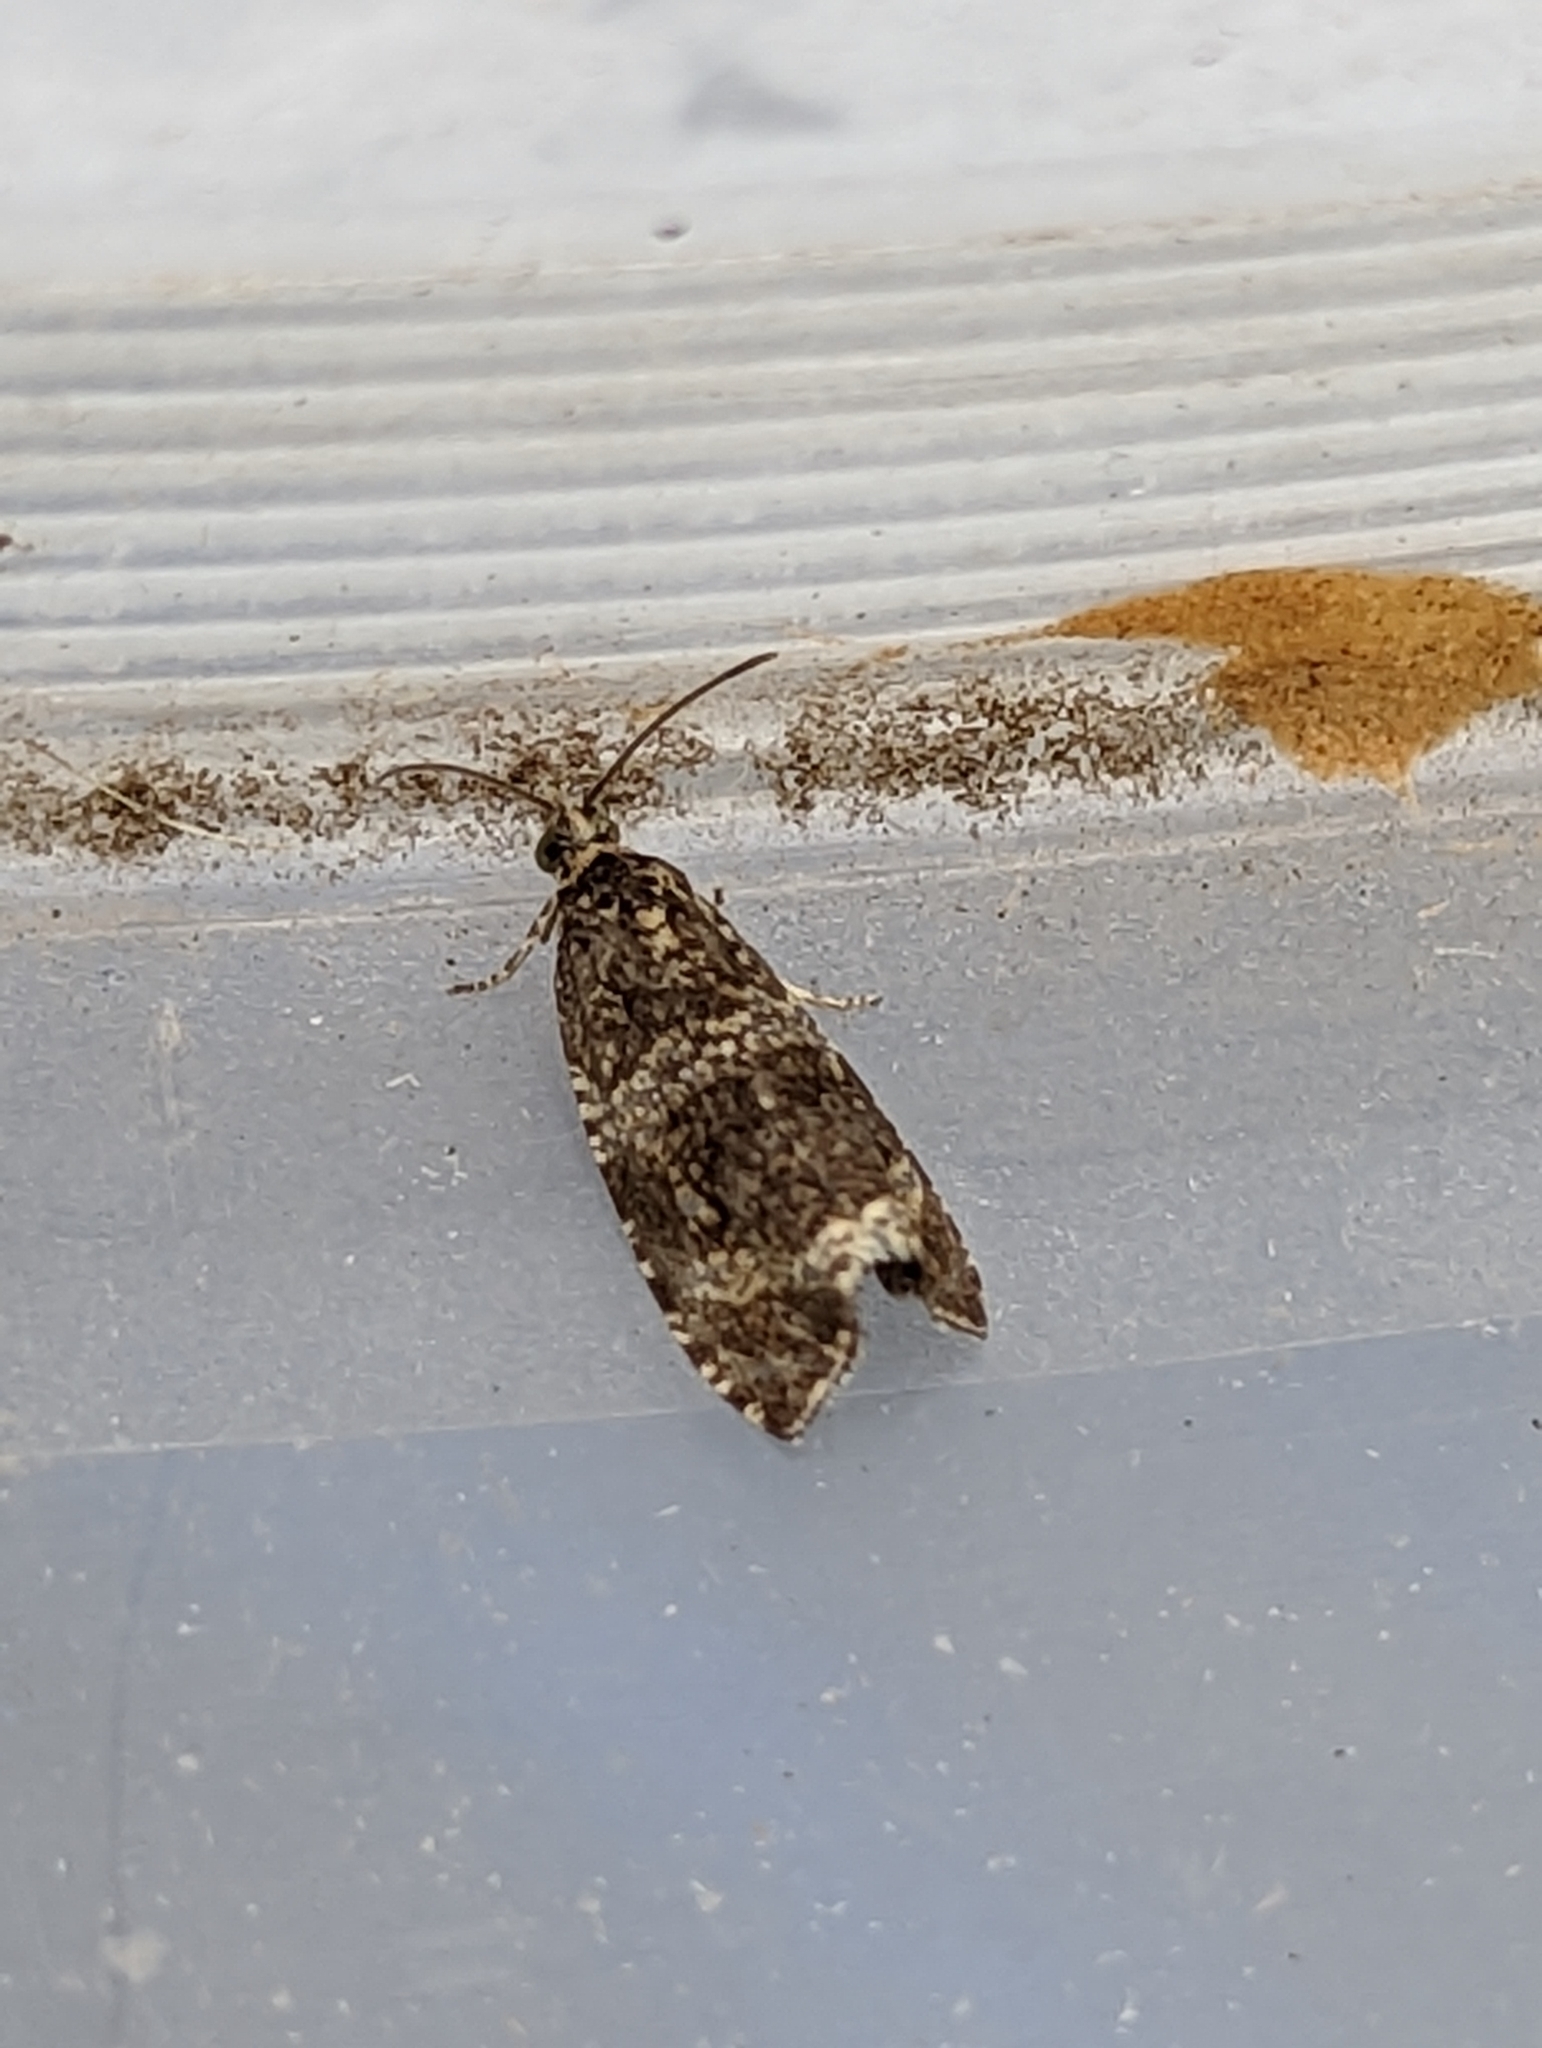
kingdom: Animalia
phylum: Arthropoda
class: Insecta
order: Lepidoptera
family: Tortricidae
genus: Syricoris
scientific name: Syricoris lacunana
